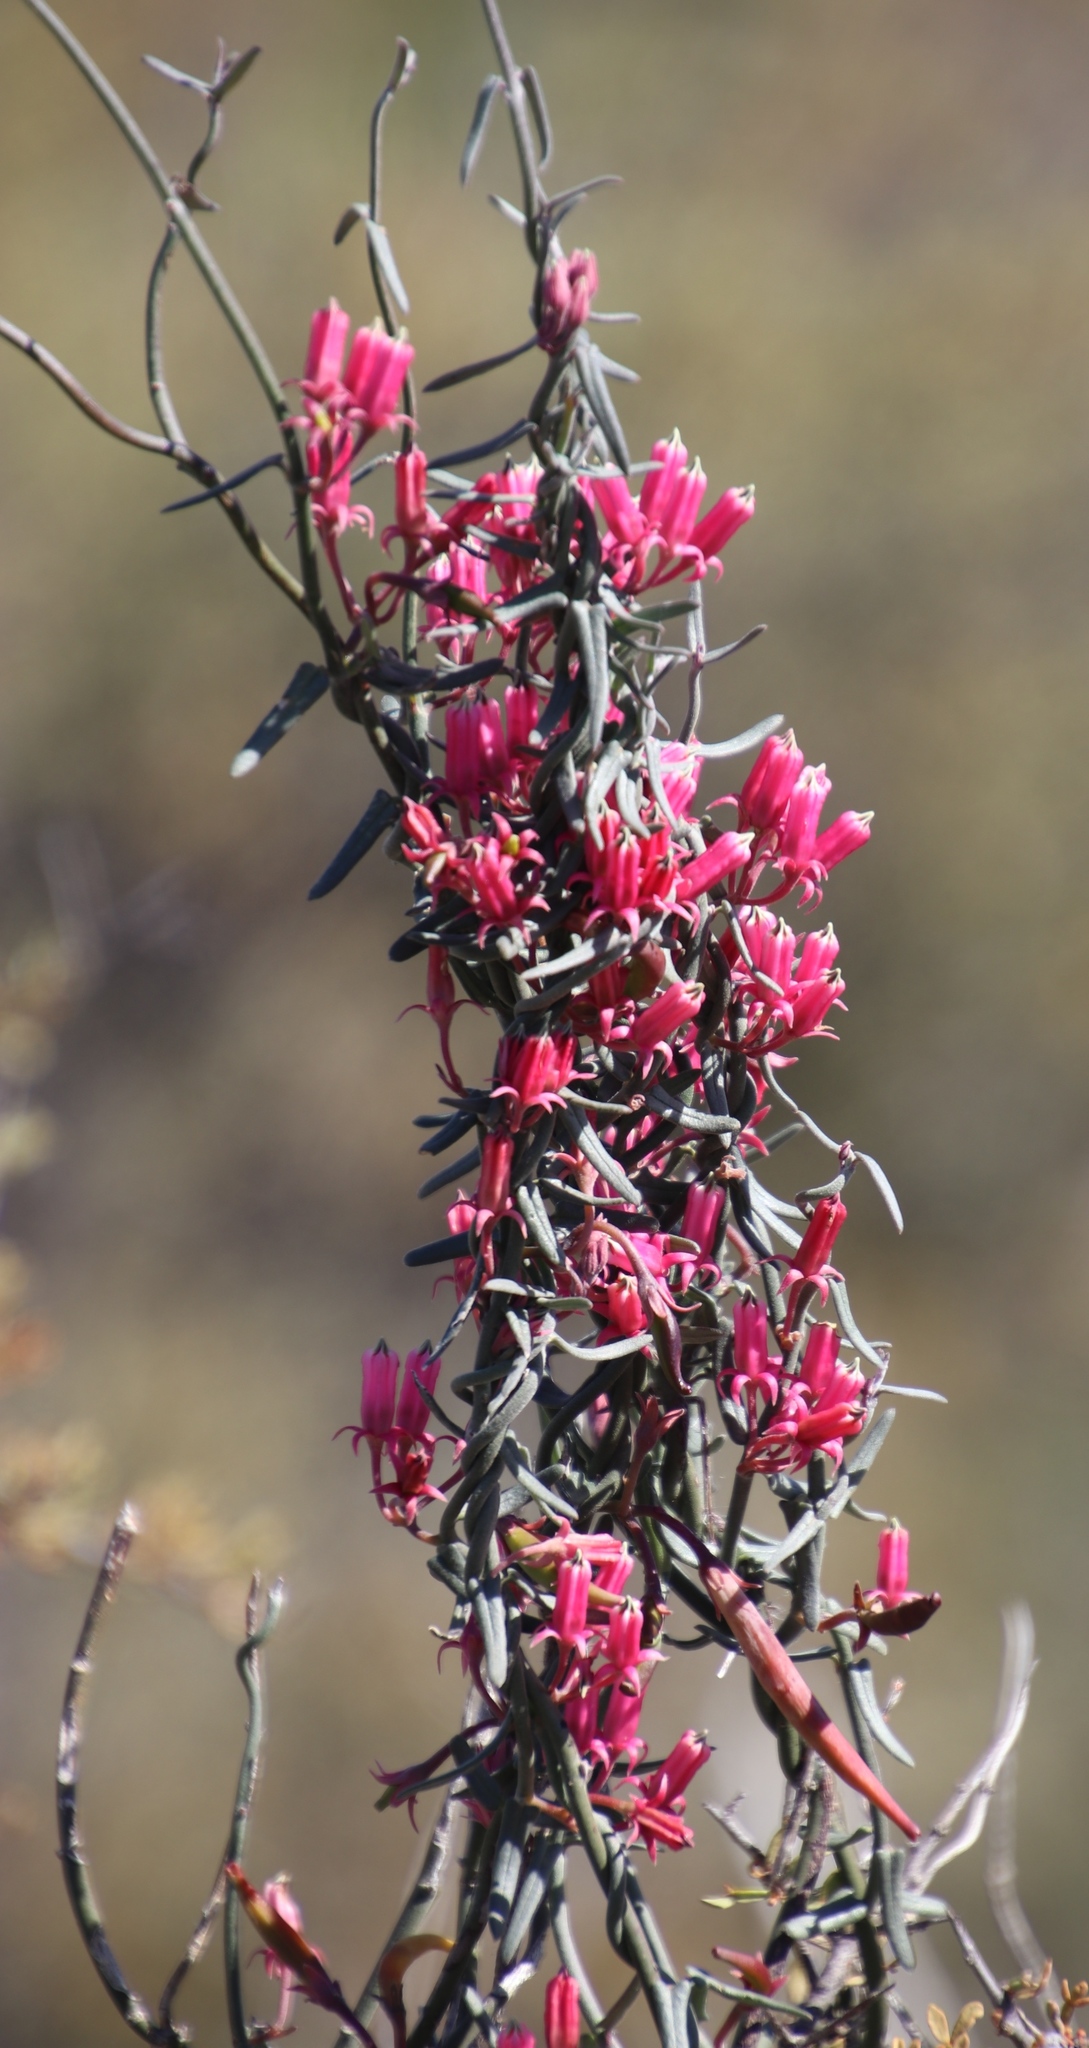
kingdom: Plantae
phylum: Tracheophyta
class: Magnoliopsida
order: Gentianales
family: Apocynaceae
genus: Microloma
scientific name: Microloma sagittatum
